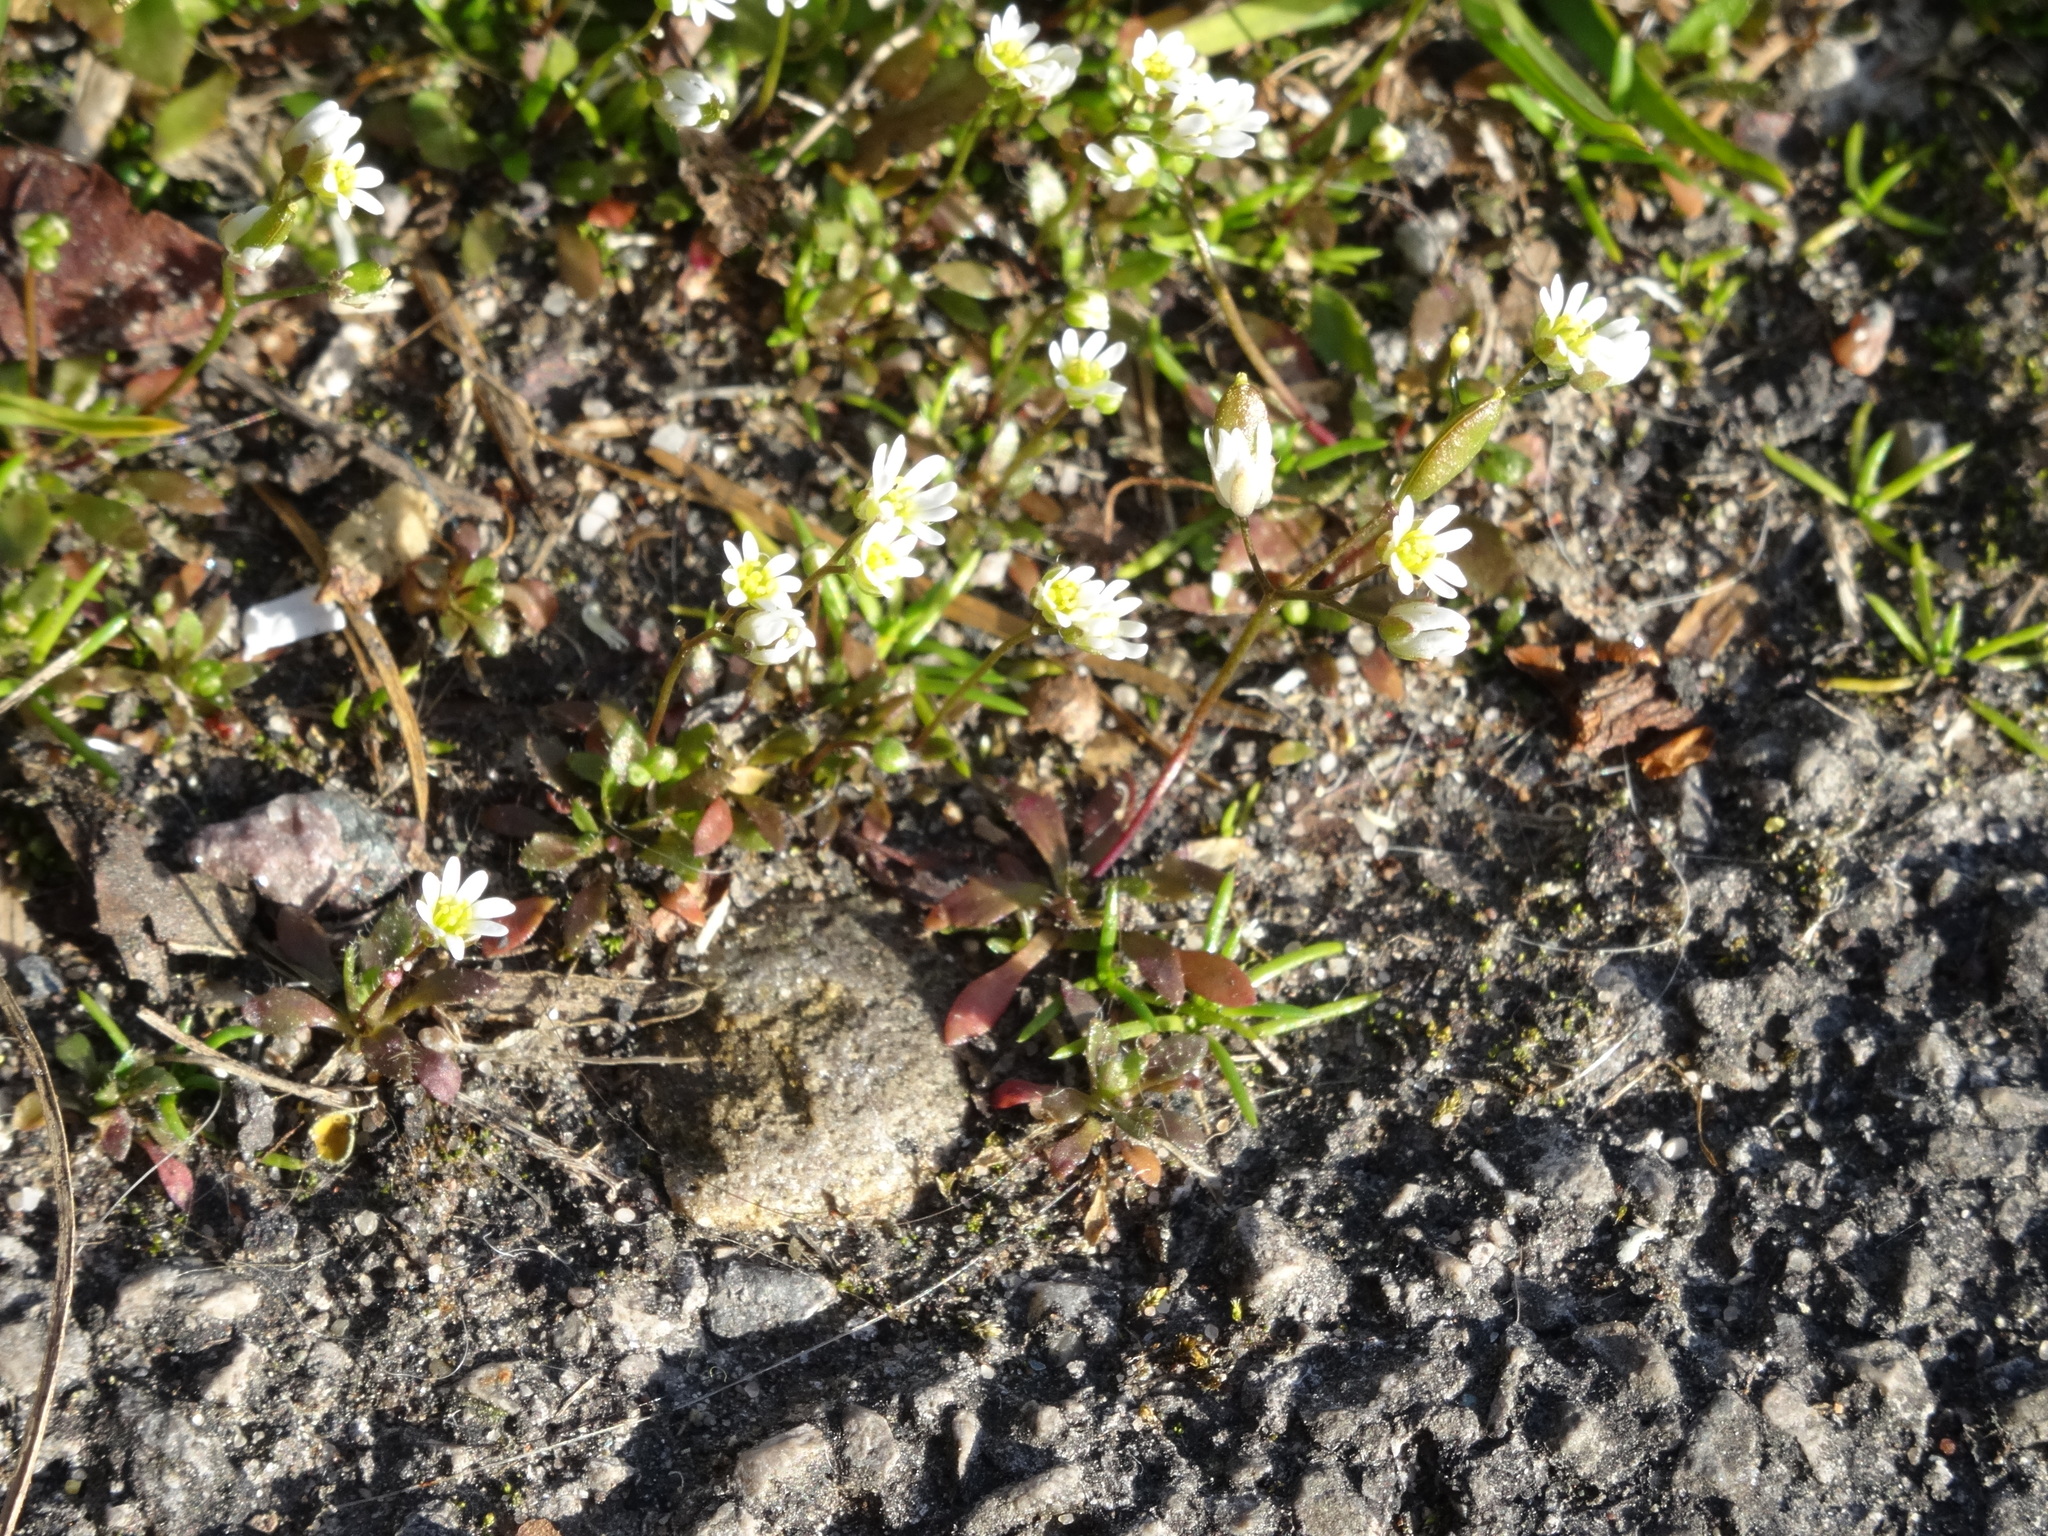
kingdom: Plantae
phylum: Tracheophyta
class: Magnoliopsida
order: Brassicales
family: Brassicaceae
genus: Draba
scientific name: Draba verna
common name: Spring draba
